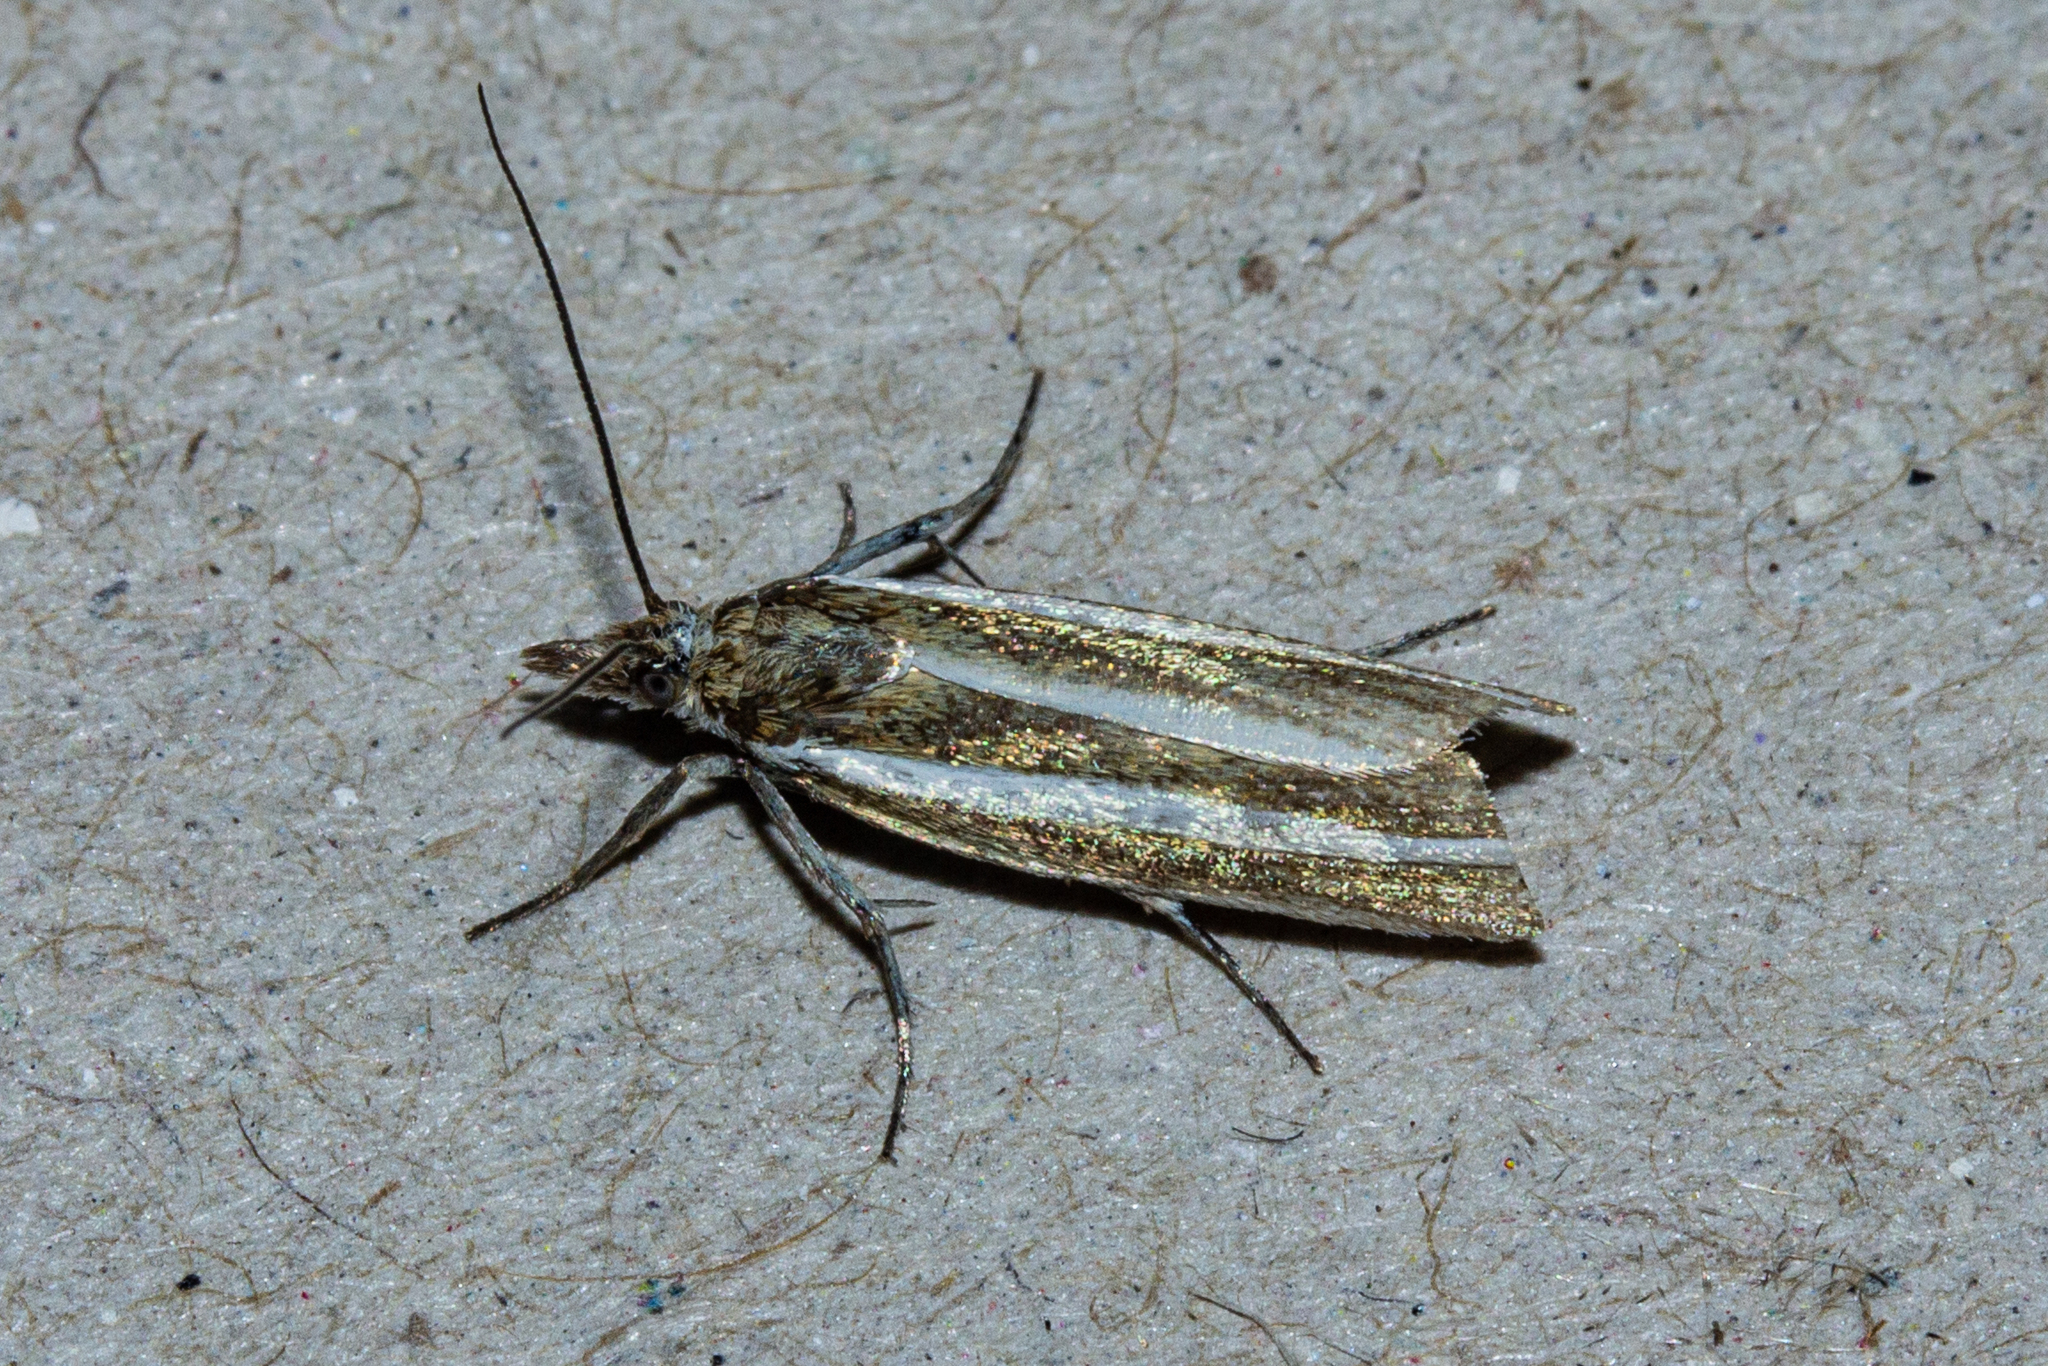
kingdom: Animalia
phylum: Arthropoda
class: Insecta
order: Lepidoptera
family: Crambidae
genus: Orocrambus
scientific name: Orocrambus aethonellus
